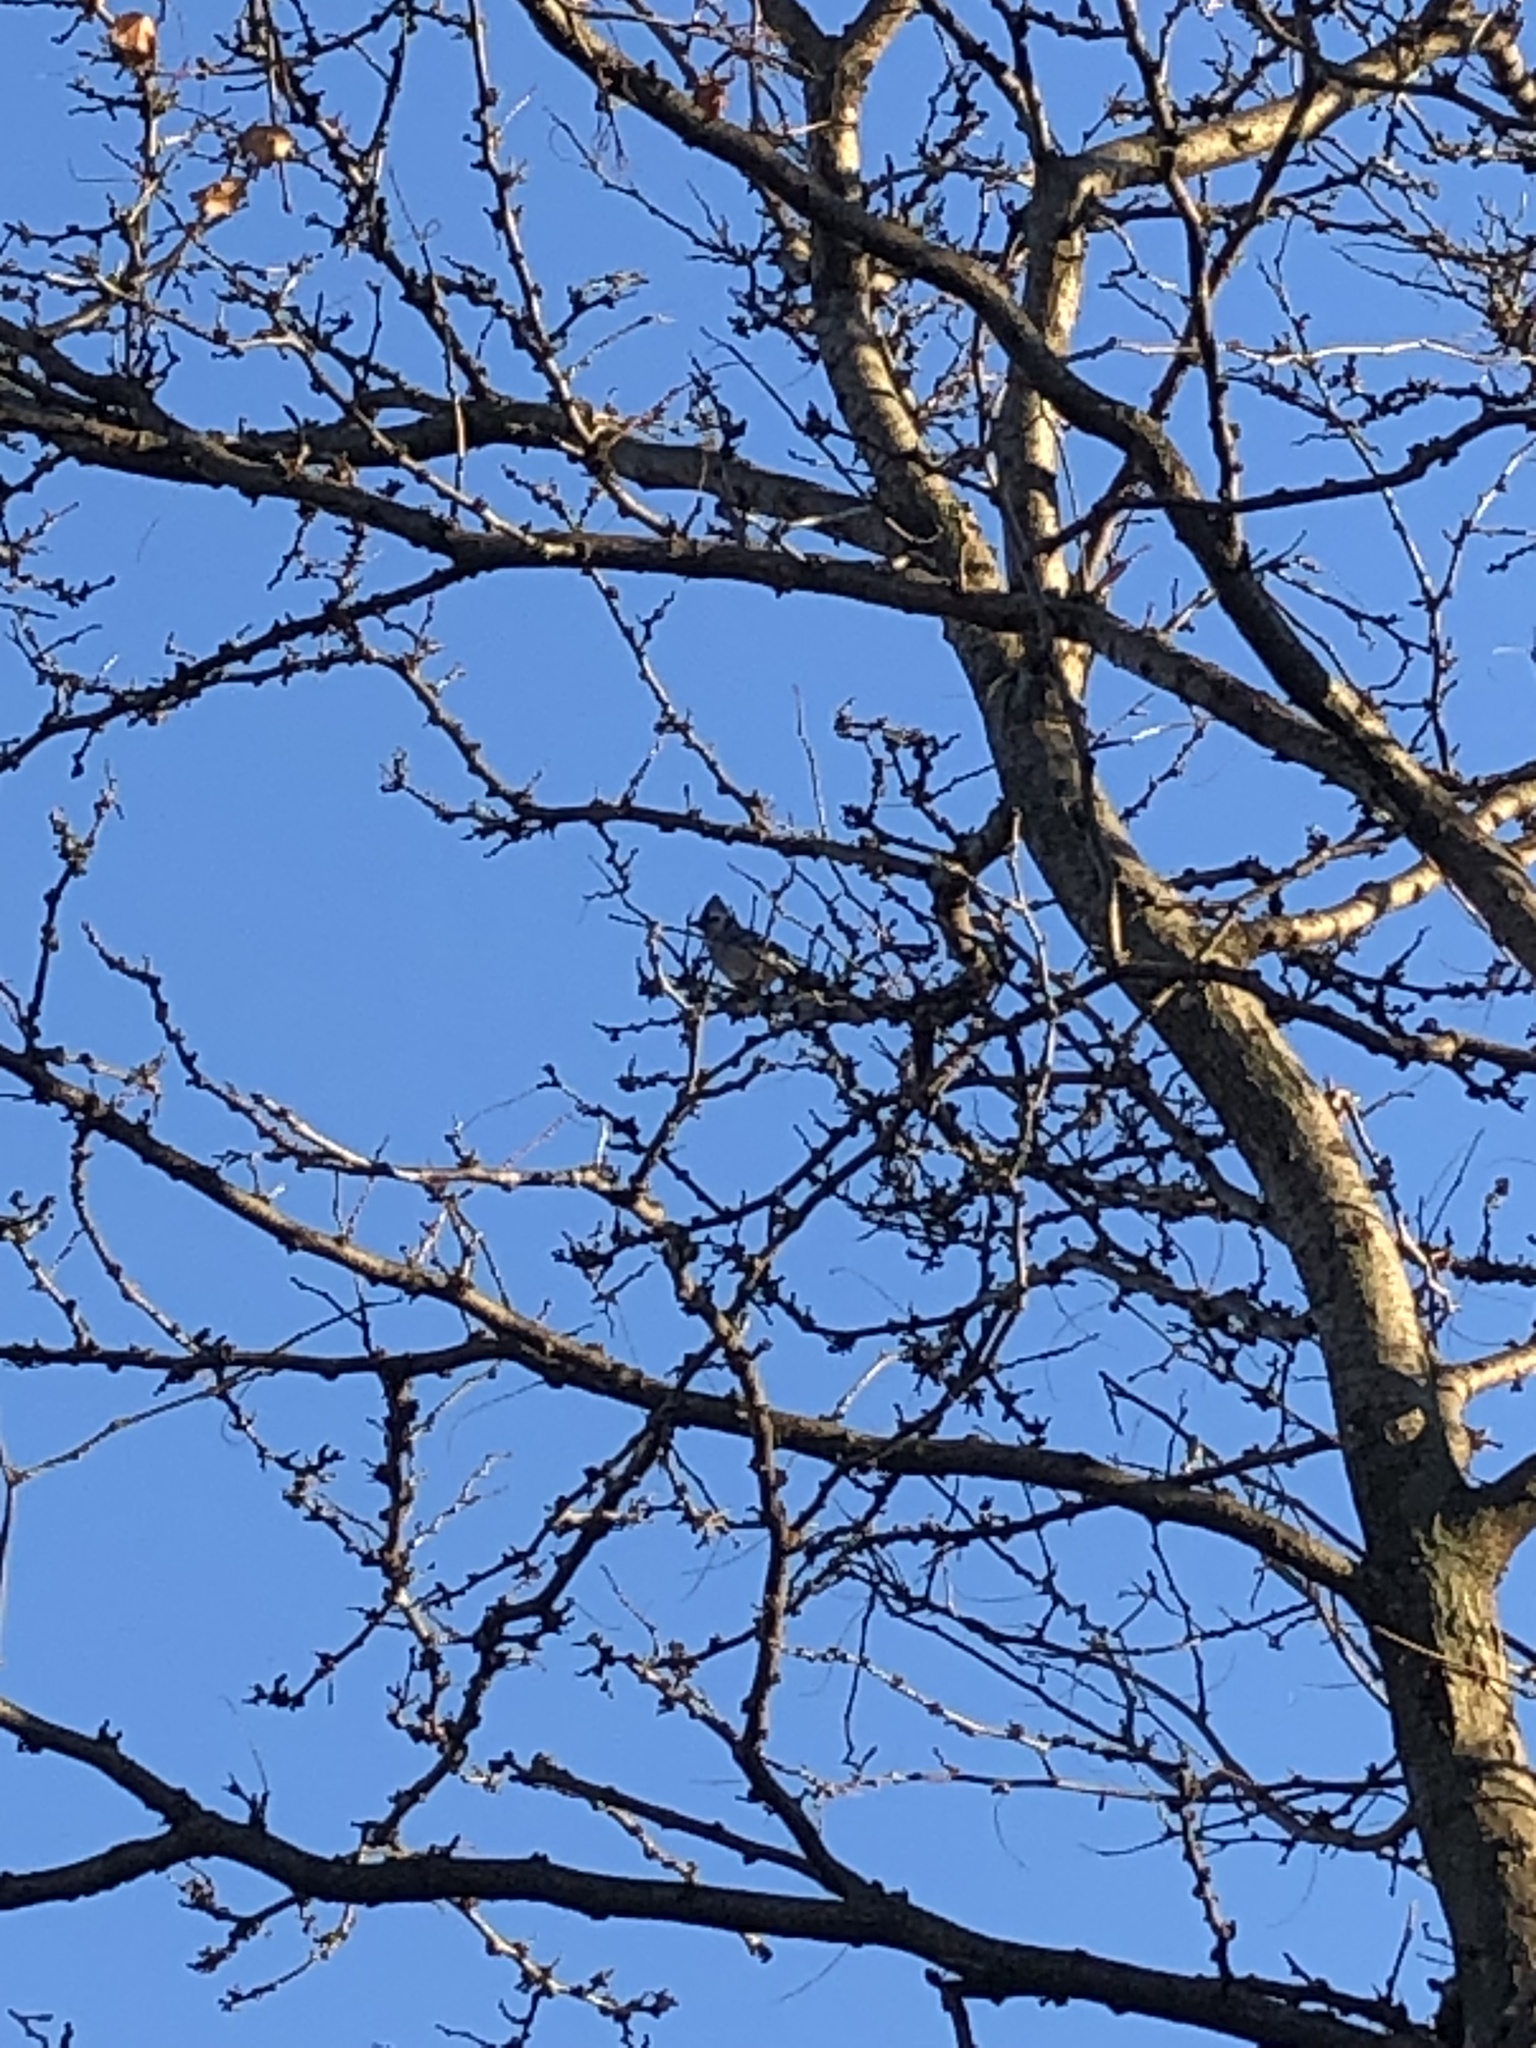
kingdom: Animalia
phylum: Chordata
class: Aves
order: Passeriformes
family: Corvidae
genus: Cyanocitta
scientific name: Cyanocitta cristata
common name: Blue jay
